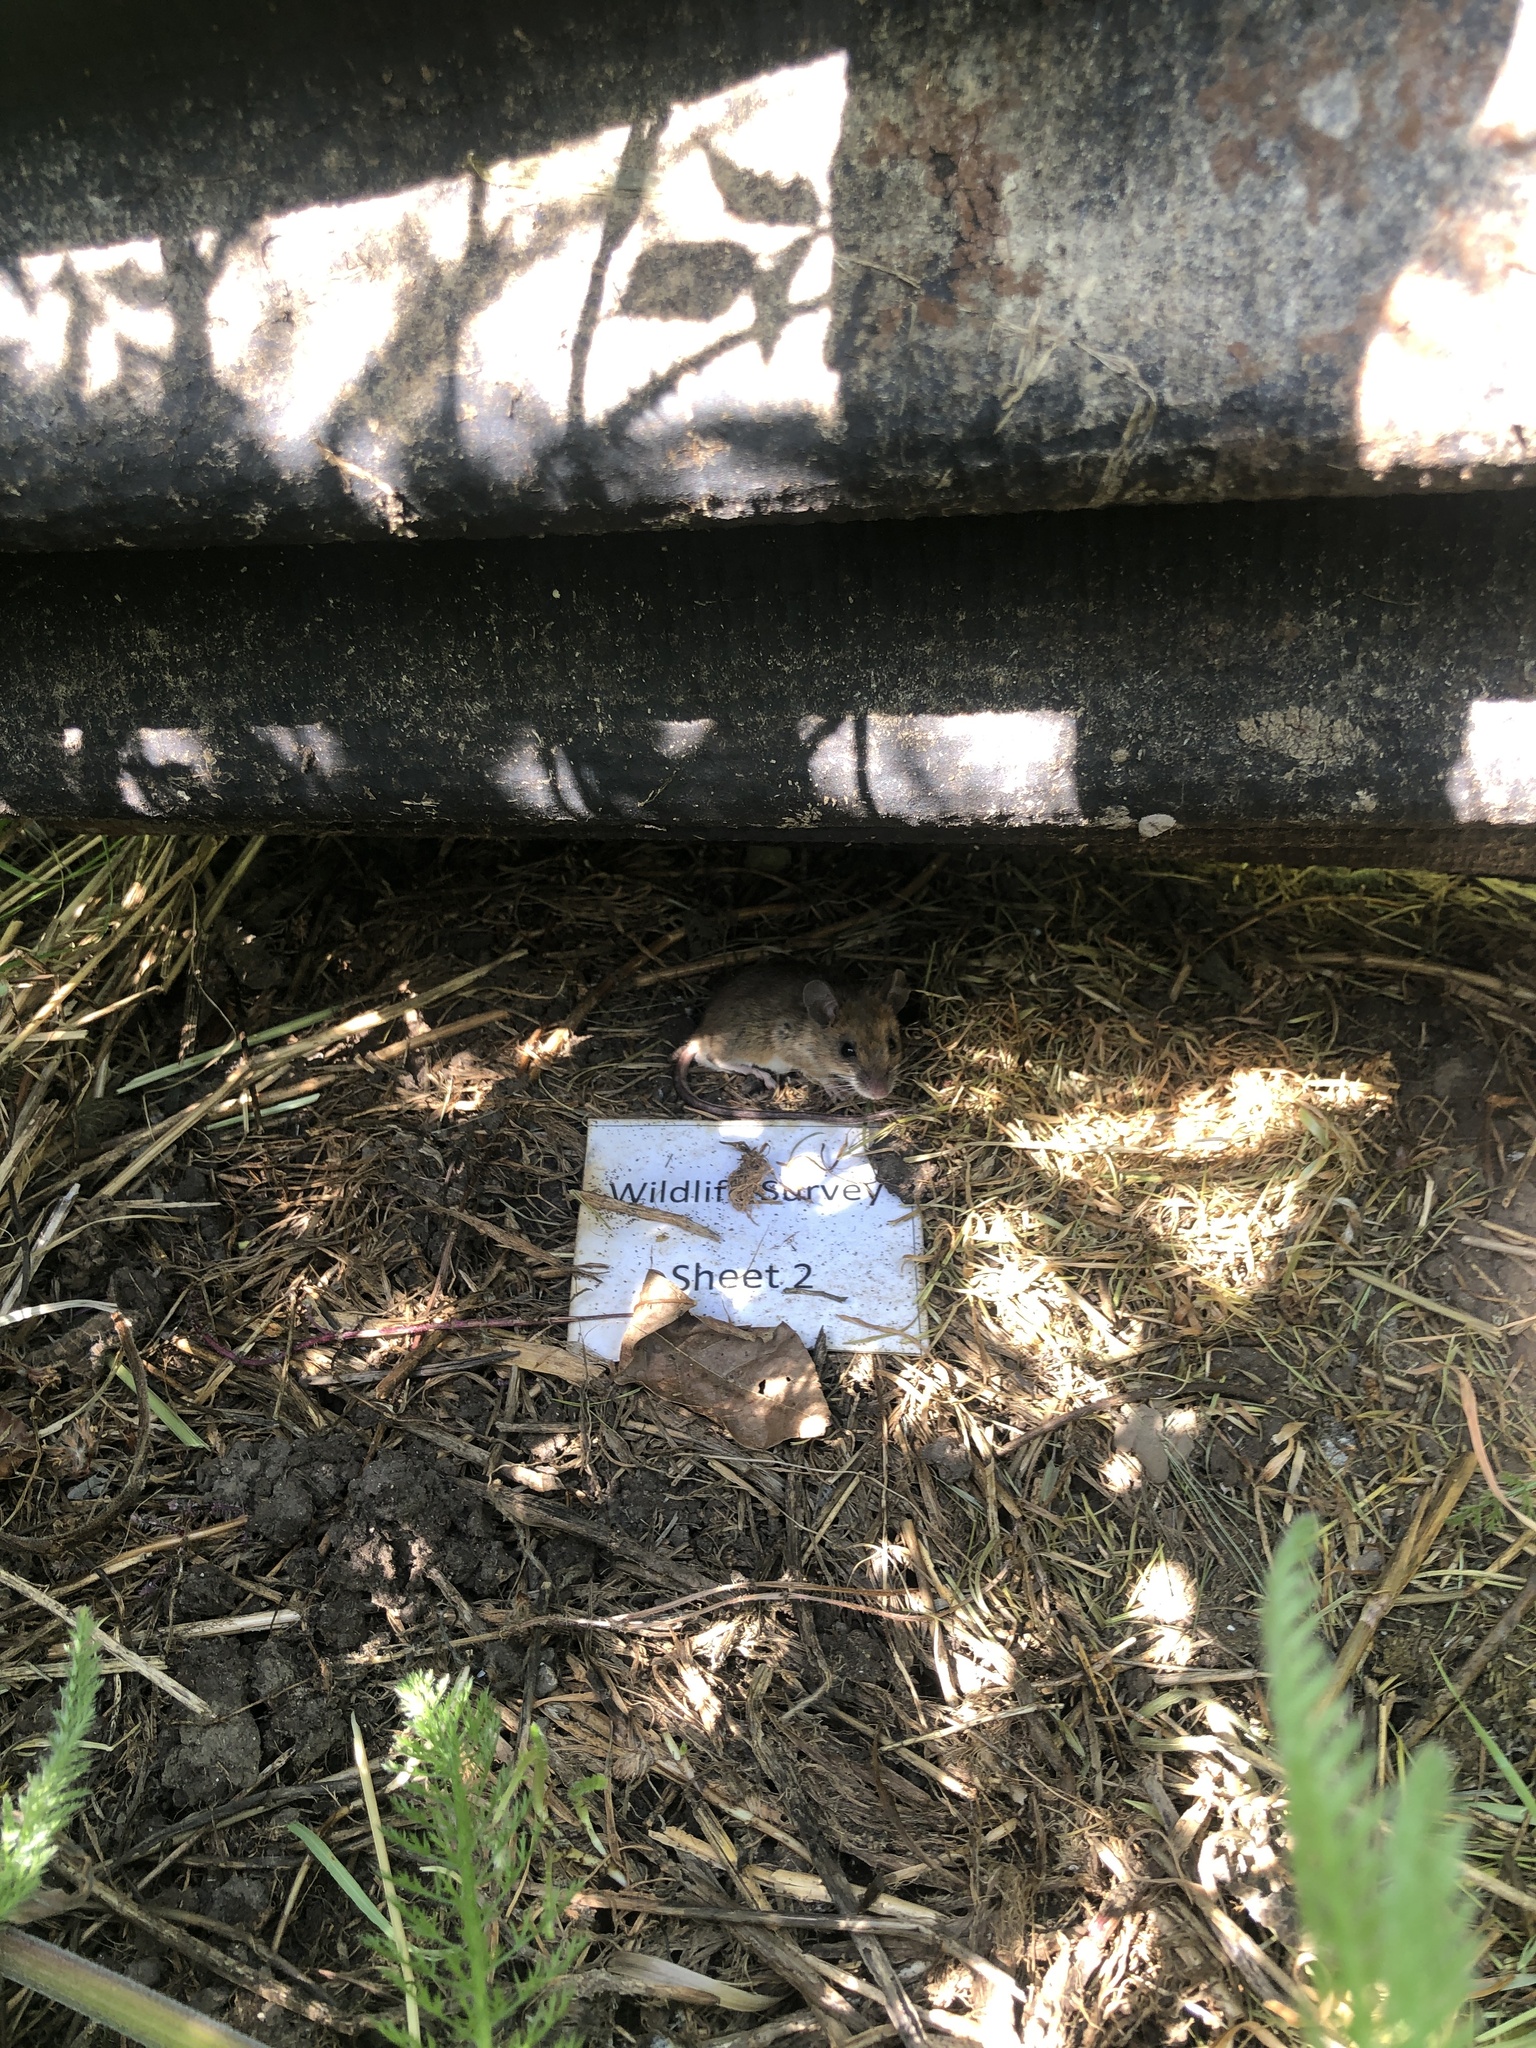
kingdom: Animalia
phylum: Chordata
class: Mammalia
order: Rodentia
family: Muridae
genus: Apodemus
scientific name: Apodemus sylvaticus
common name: Wood mouse
